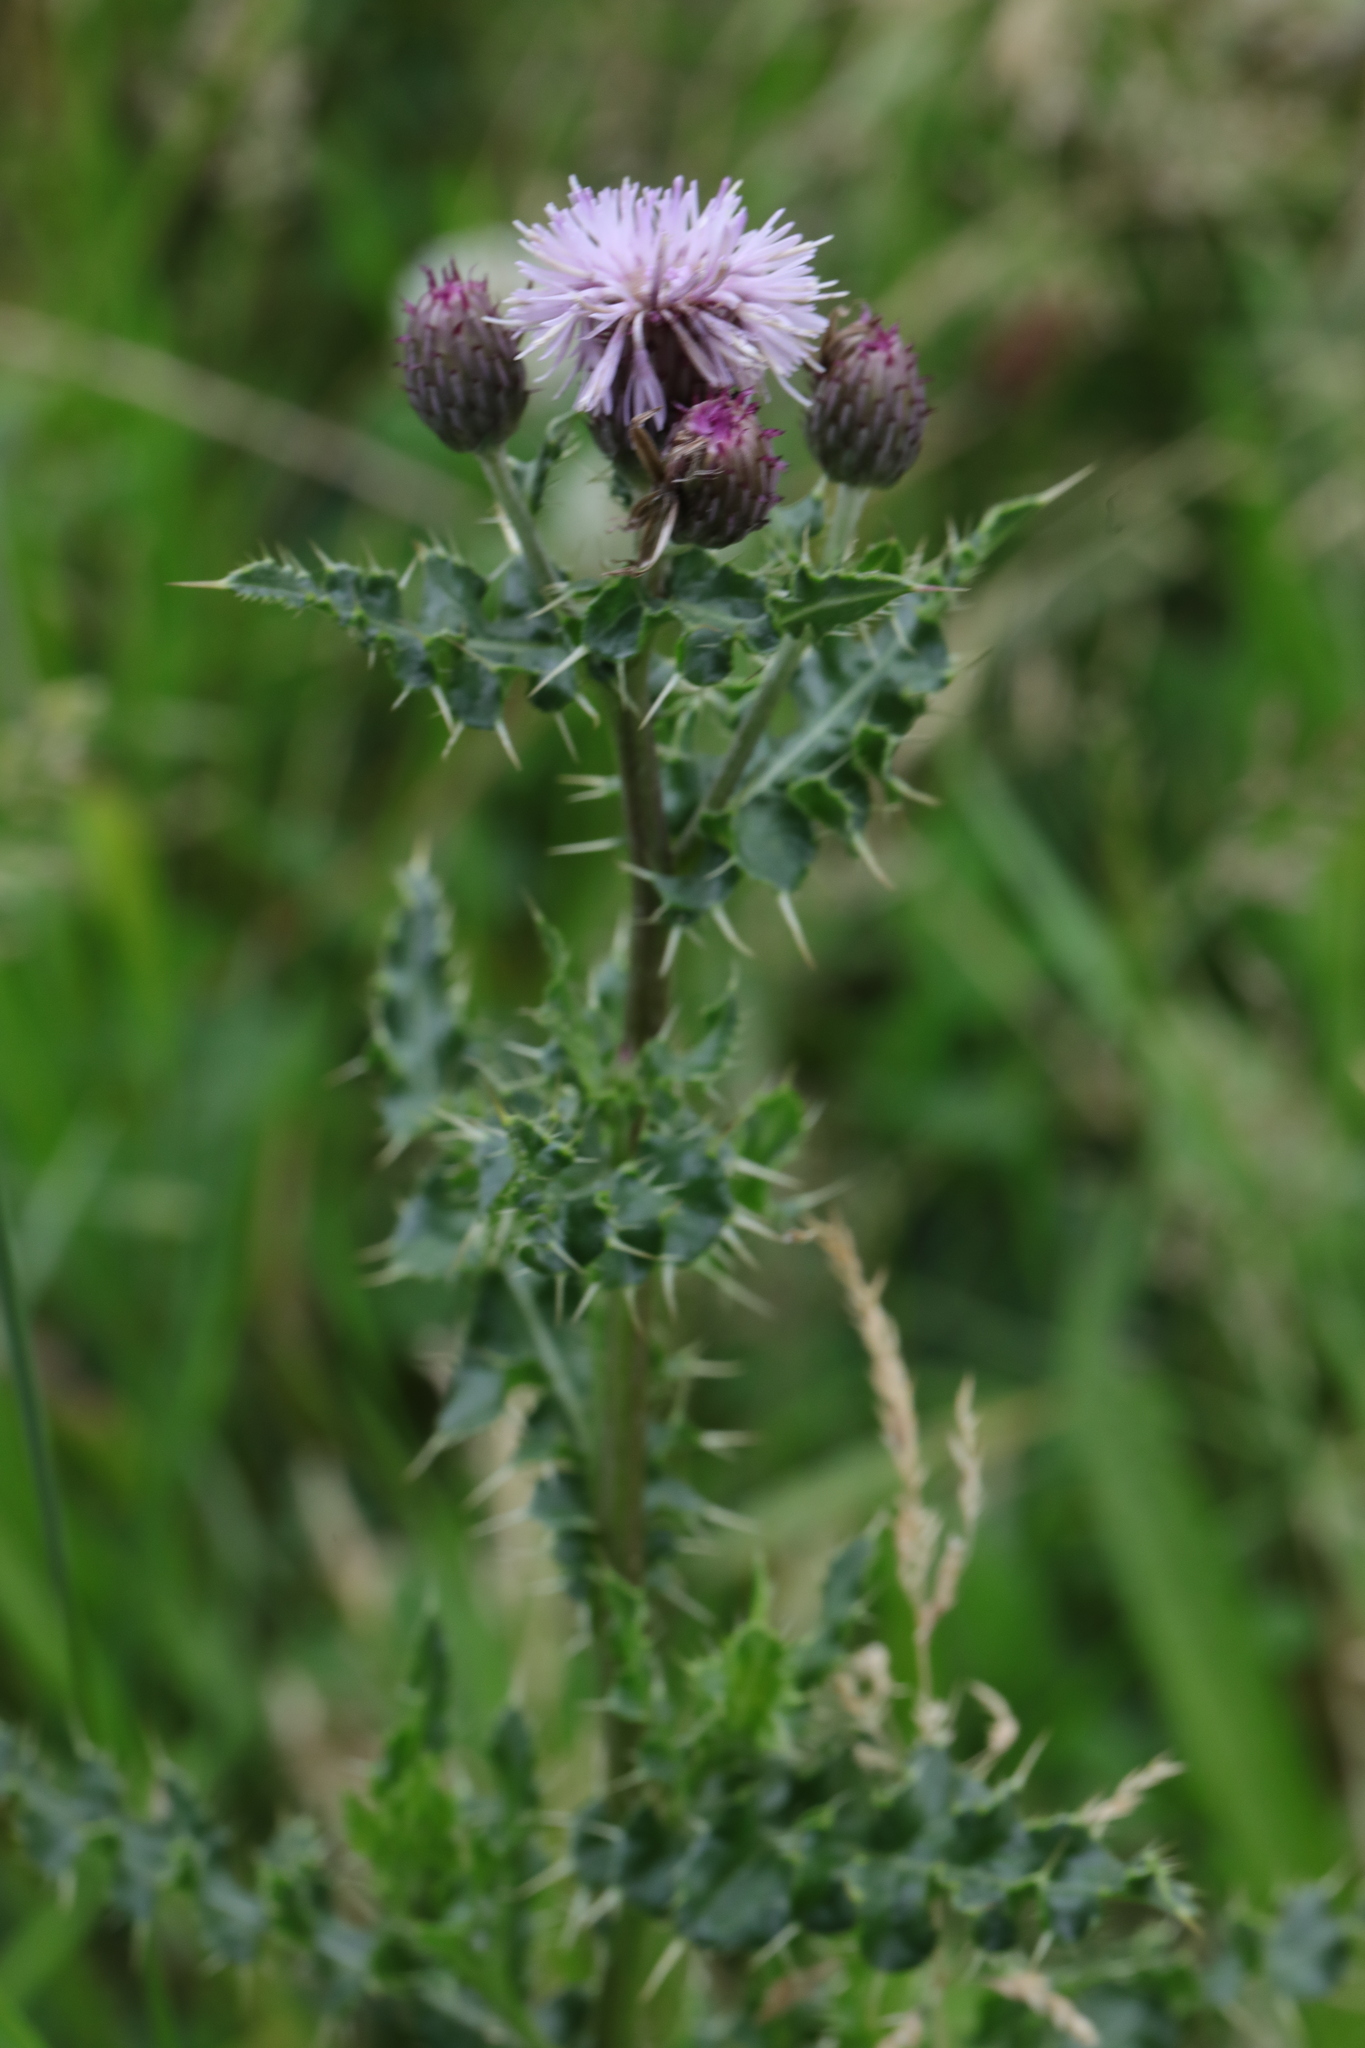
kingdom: Plantae
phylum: Tracheophyta
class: Magnoliopsida
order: Asterales
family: Asteraceae
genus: Cirsium
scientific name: Cirsium arvense
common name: Creeping thistle
